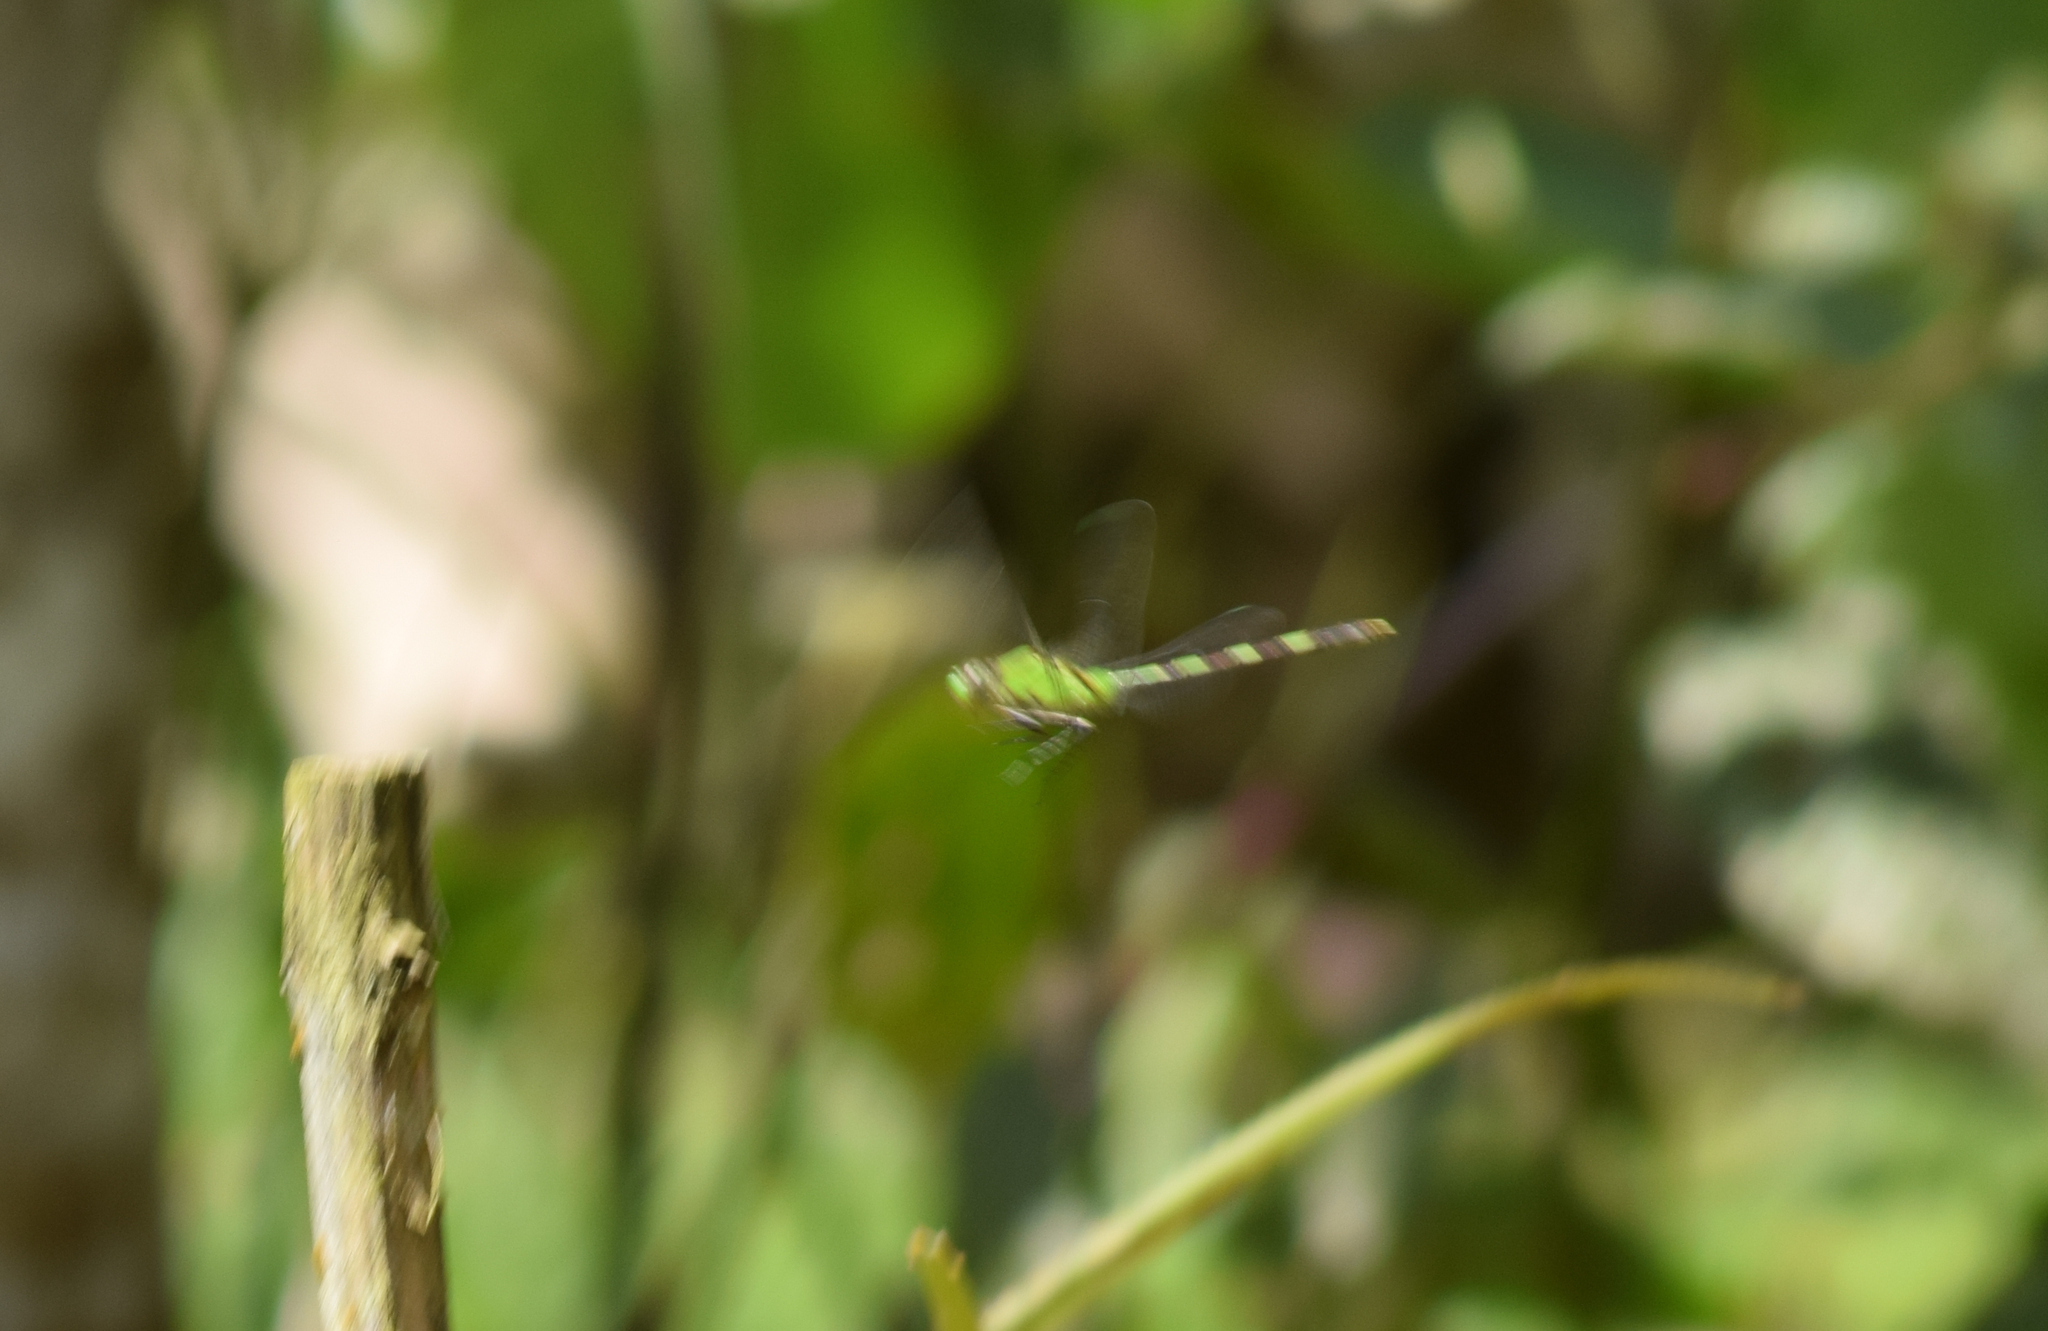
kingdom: Animalia
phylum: Arthropoda
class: Insecta
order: Odonata
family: Libellulidae
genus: Erythemis
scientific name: Erythemis vesiculosa
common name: Great pondhawk
